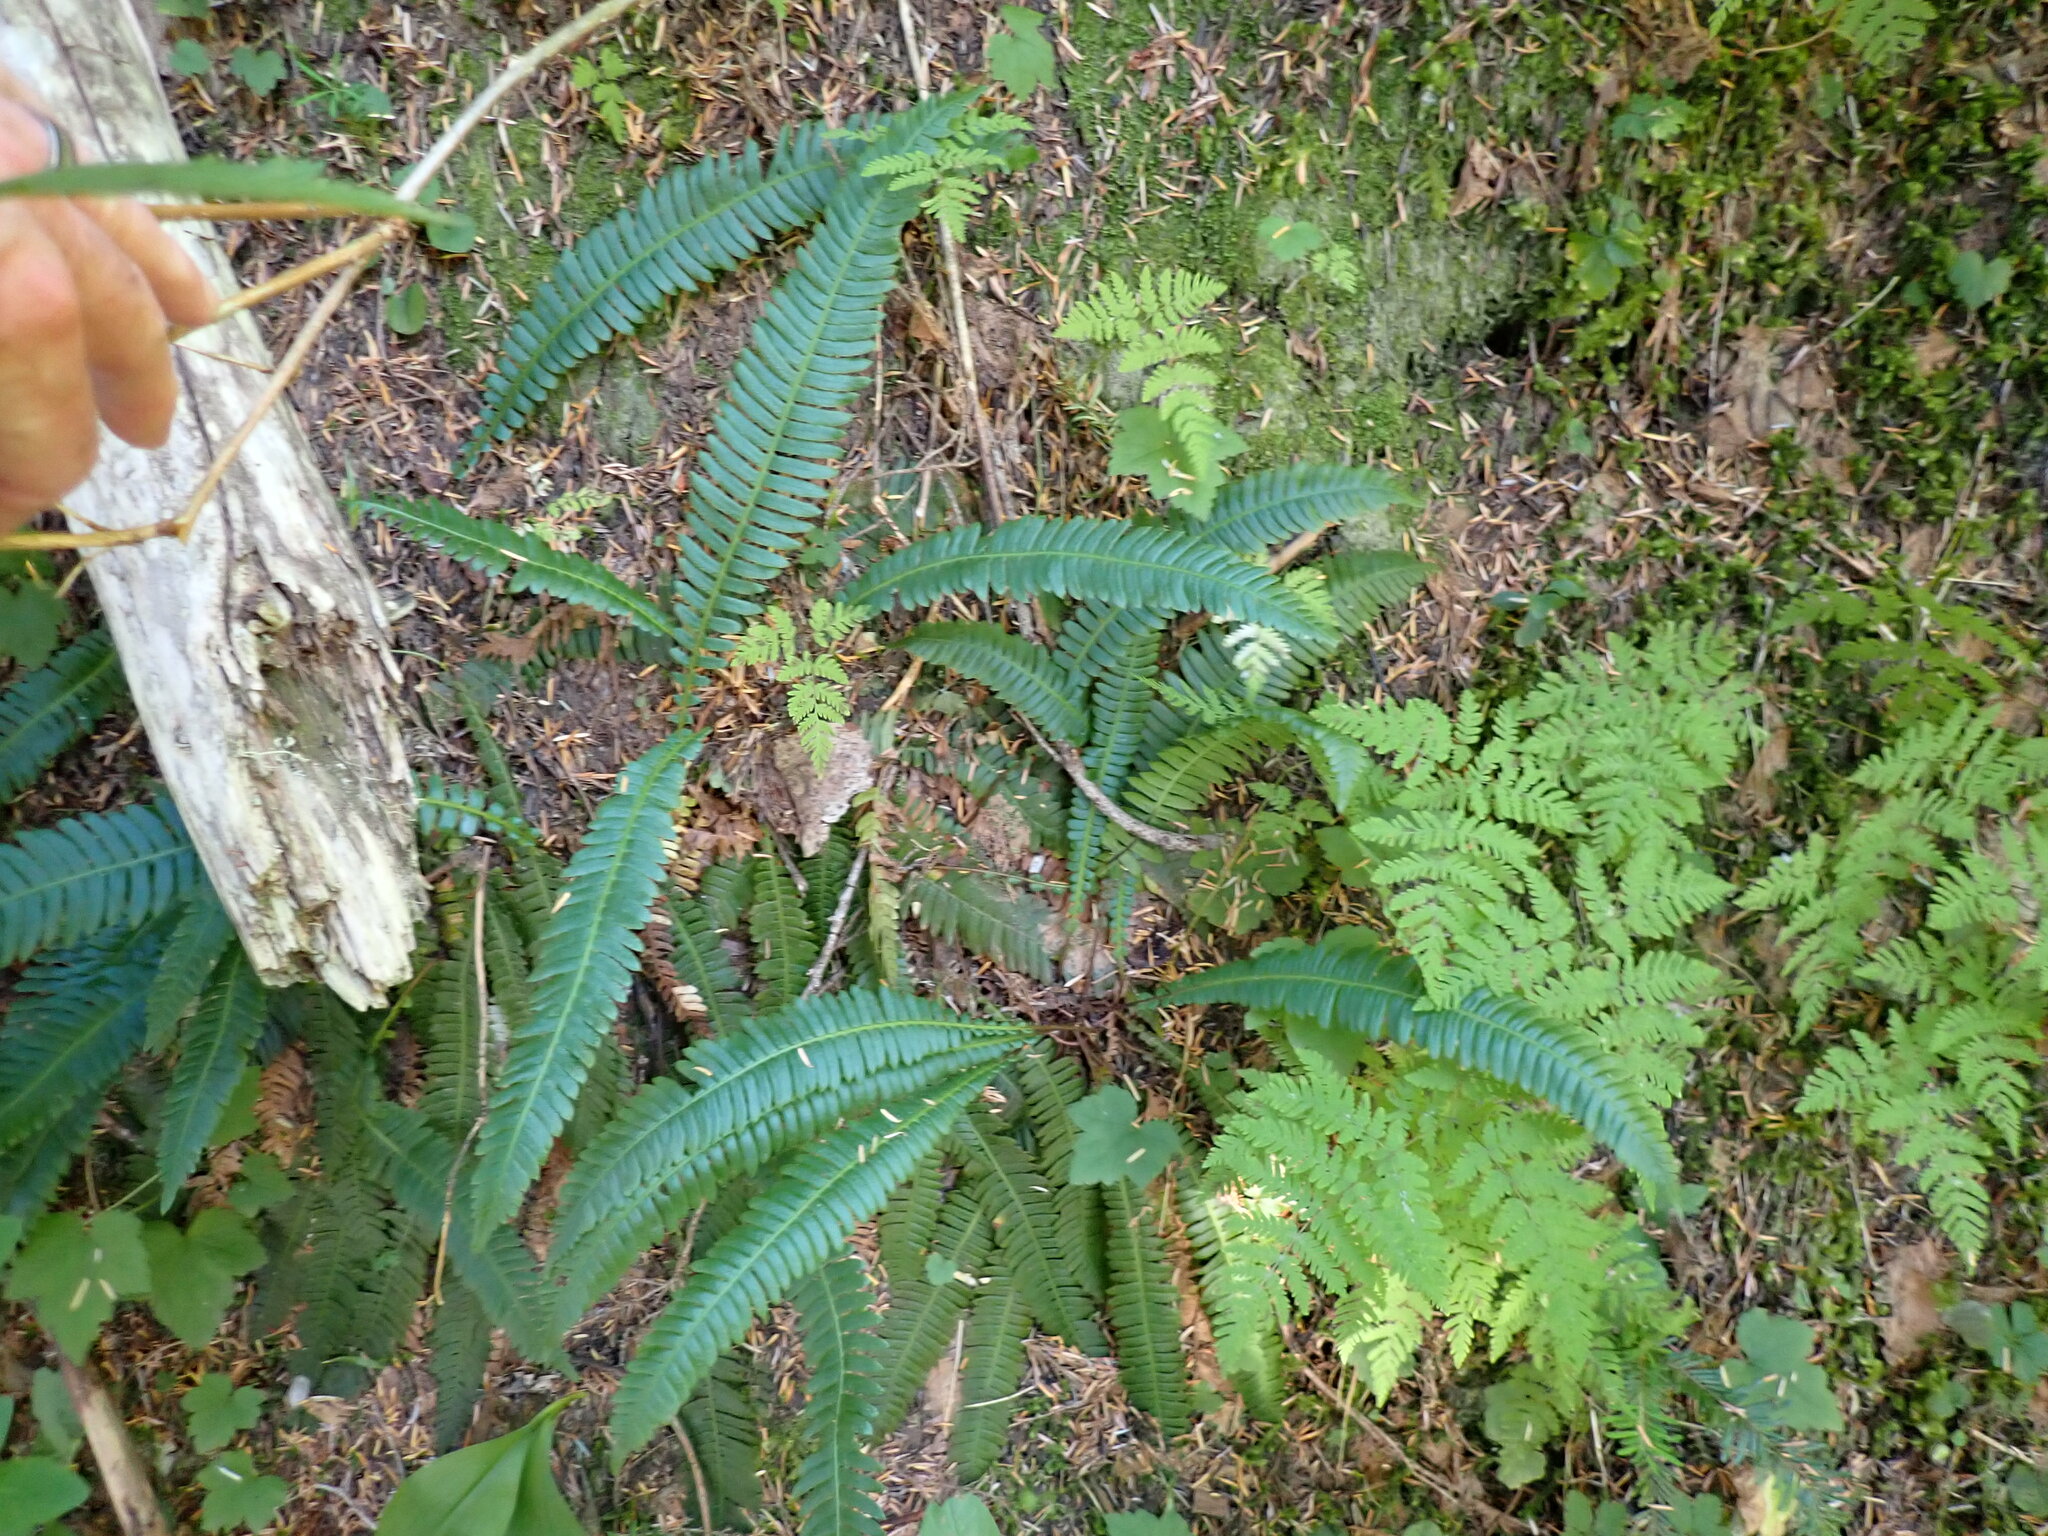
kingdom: Plantae
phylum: Tracheophyta
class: Polypodiopsida
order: Polypodiales
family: Blechnaceae
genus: Struthiopteris
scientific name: Struthiopteris spicant
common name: Deer fern
